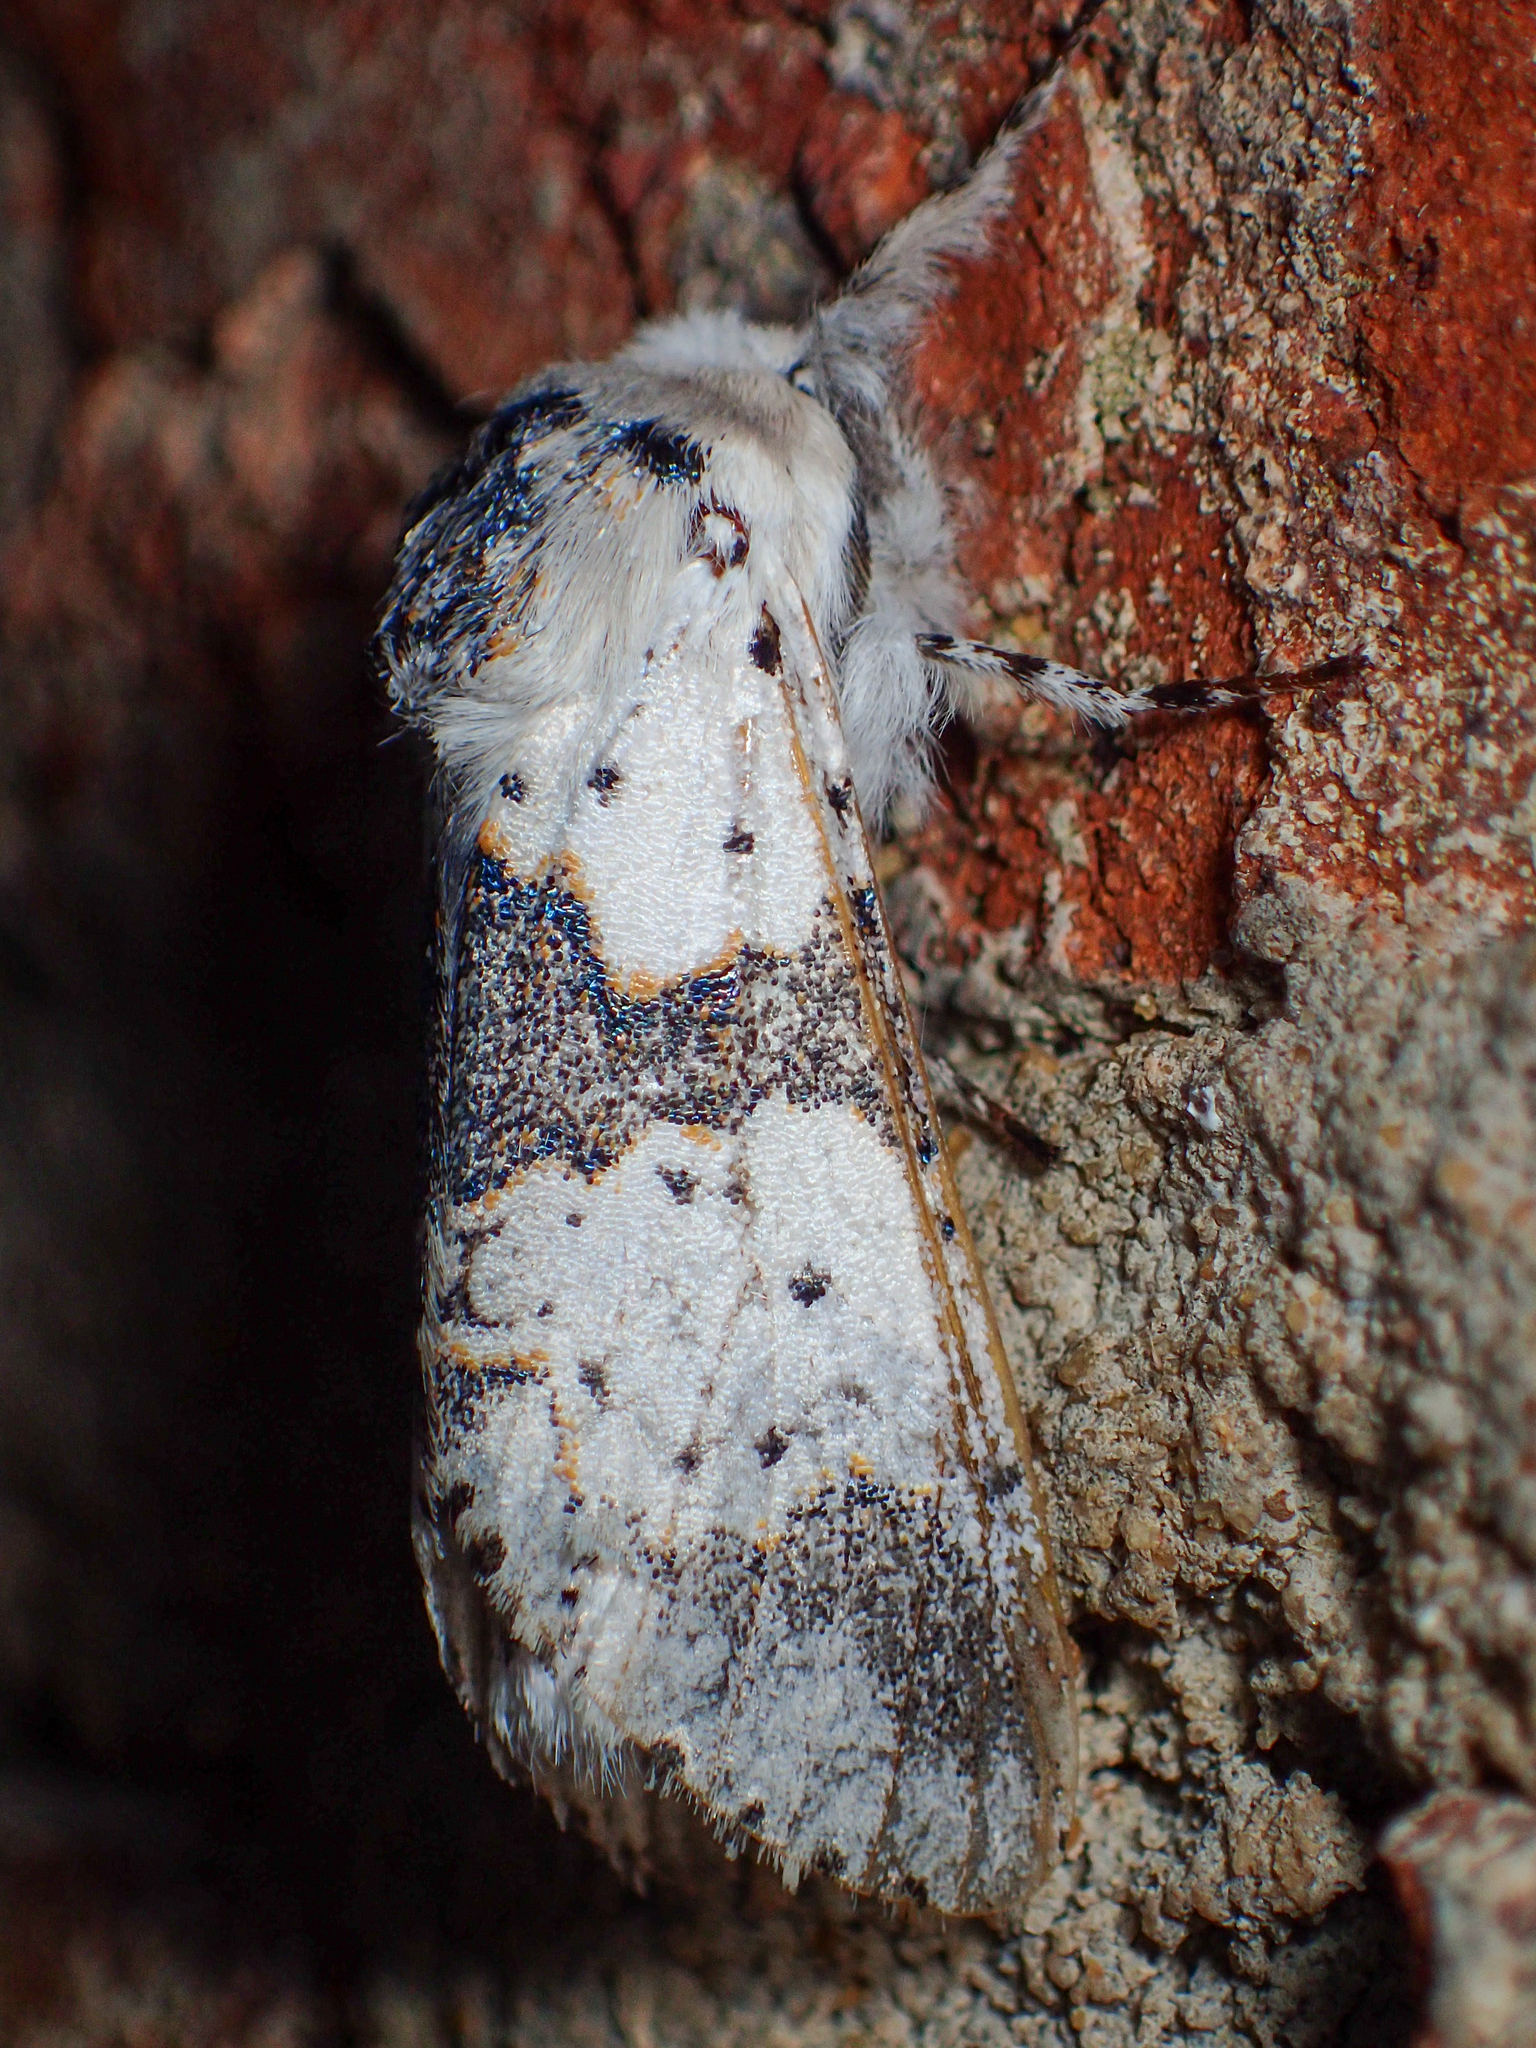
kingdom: Animalia
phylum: Arthropoda
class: Insecta
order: Lepidoptera
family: Notodontidae
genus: Furcula
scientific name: Furcula borealis
